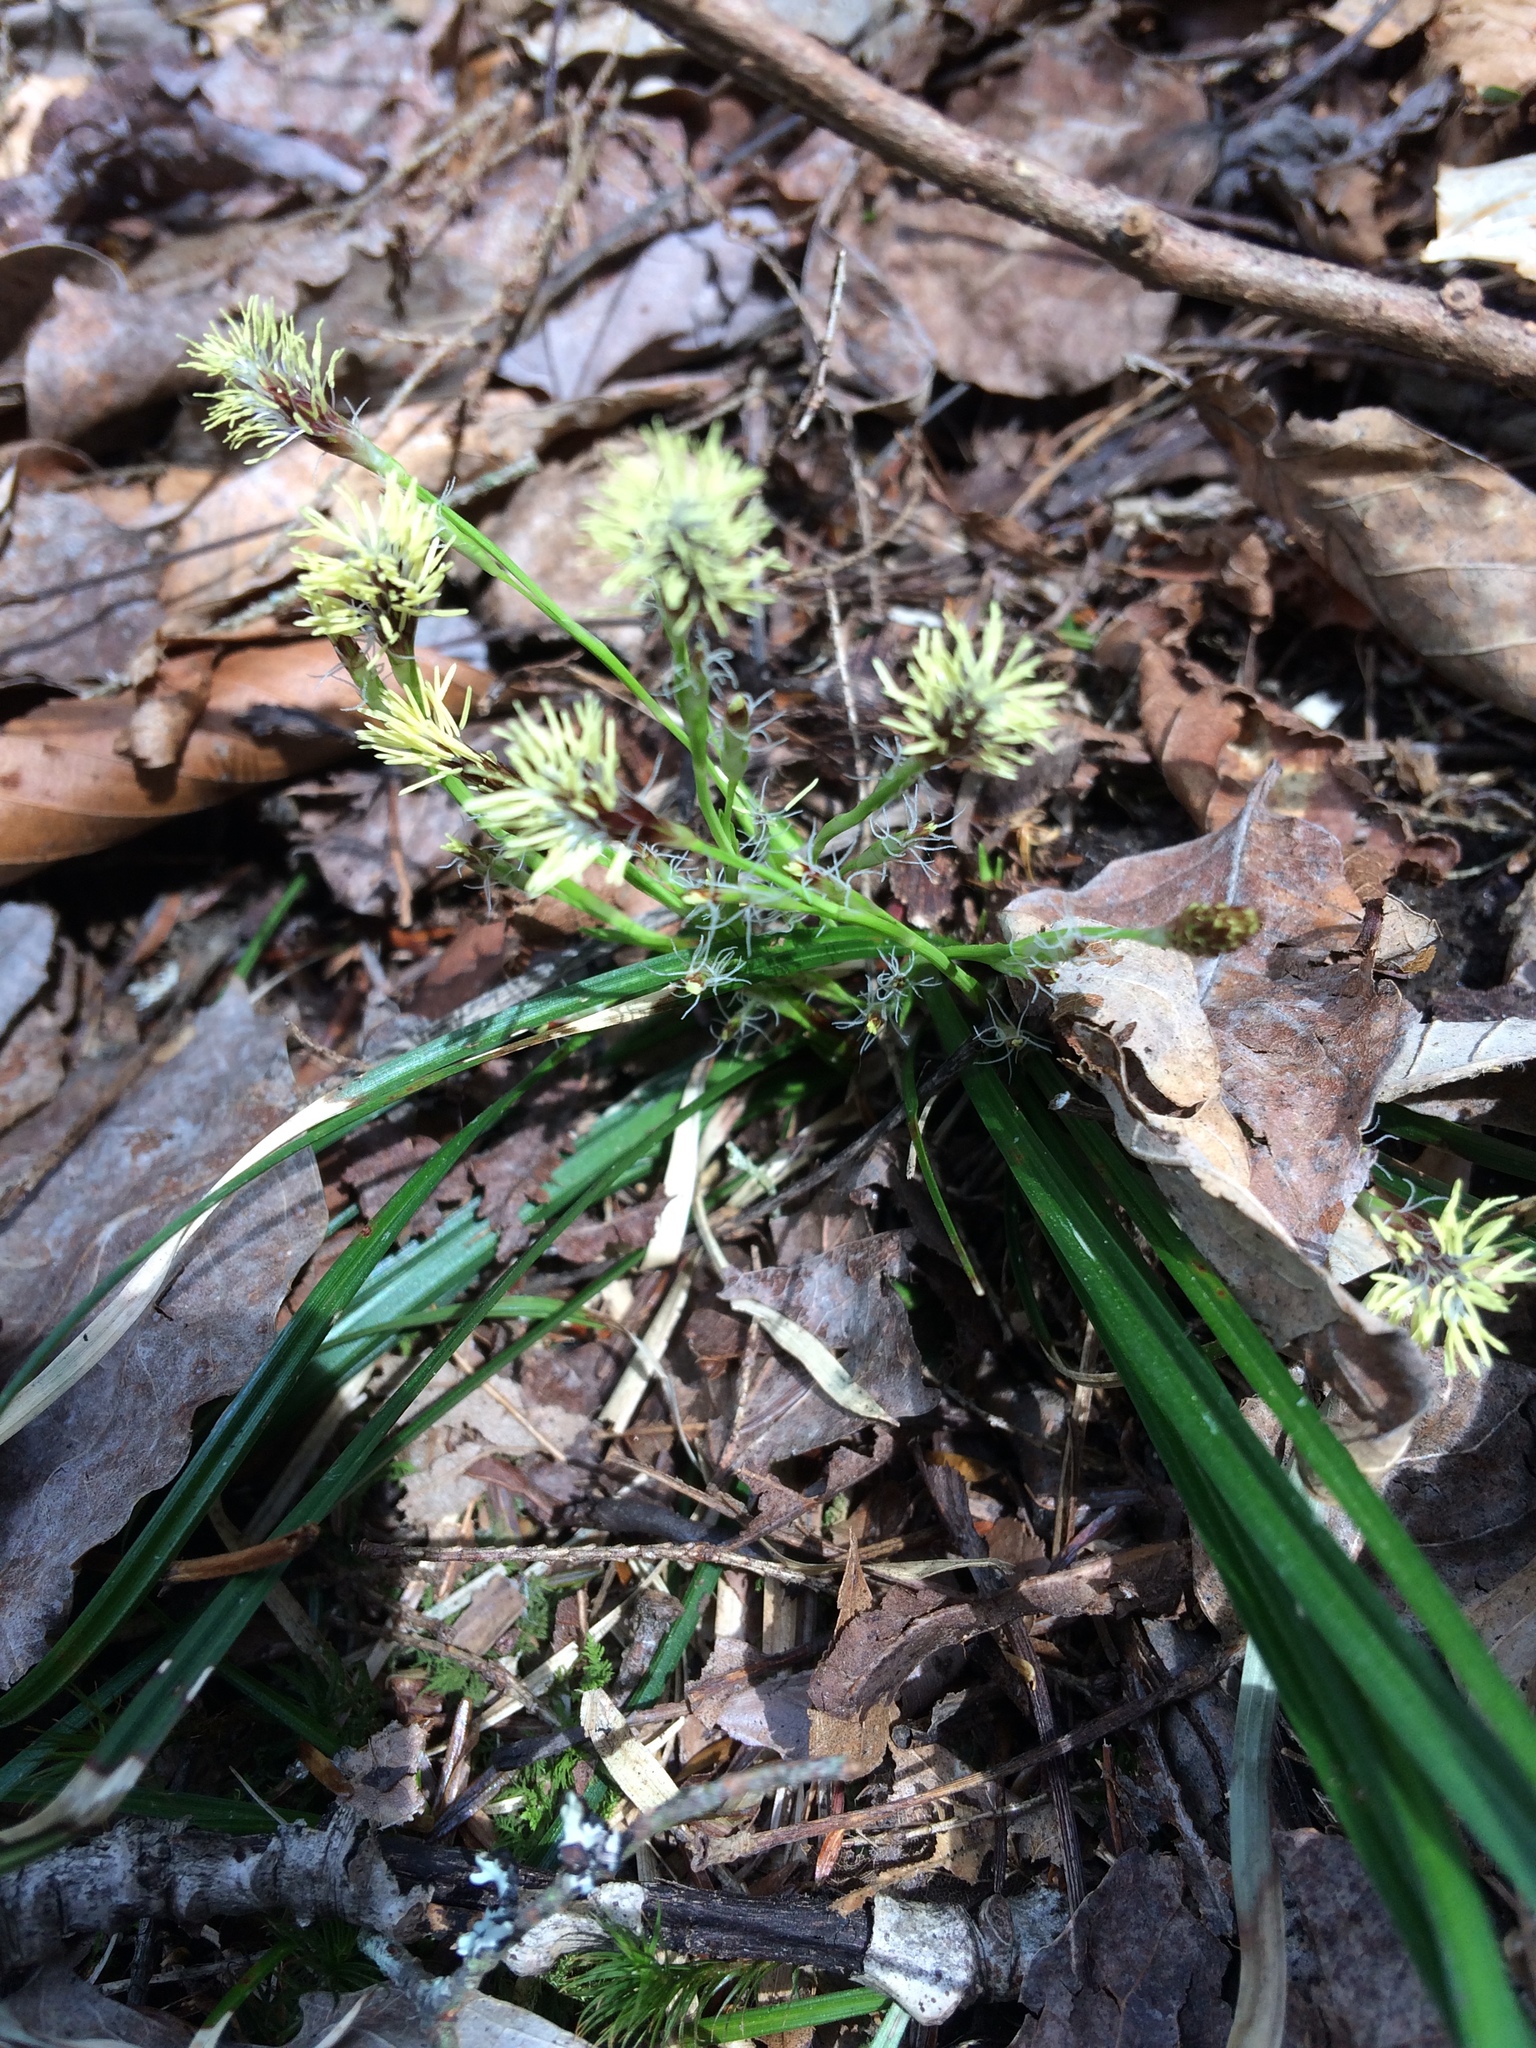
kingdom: Plantae
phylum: Tracheophyta
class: Liliopsida
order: Poales
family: Cyperaceae
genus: Carex
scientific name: Carex pedunculata
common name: Pedunculate sedge
